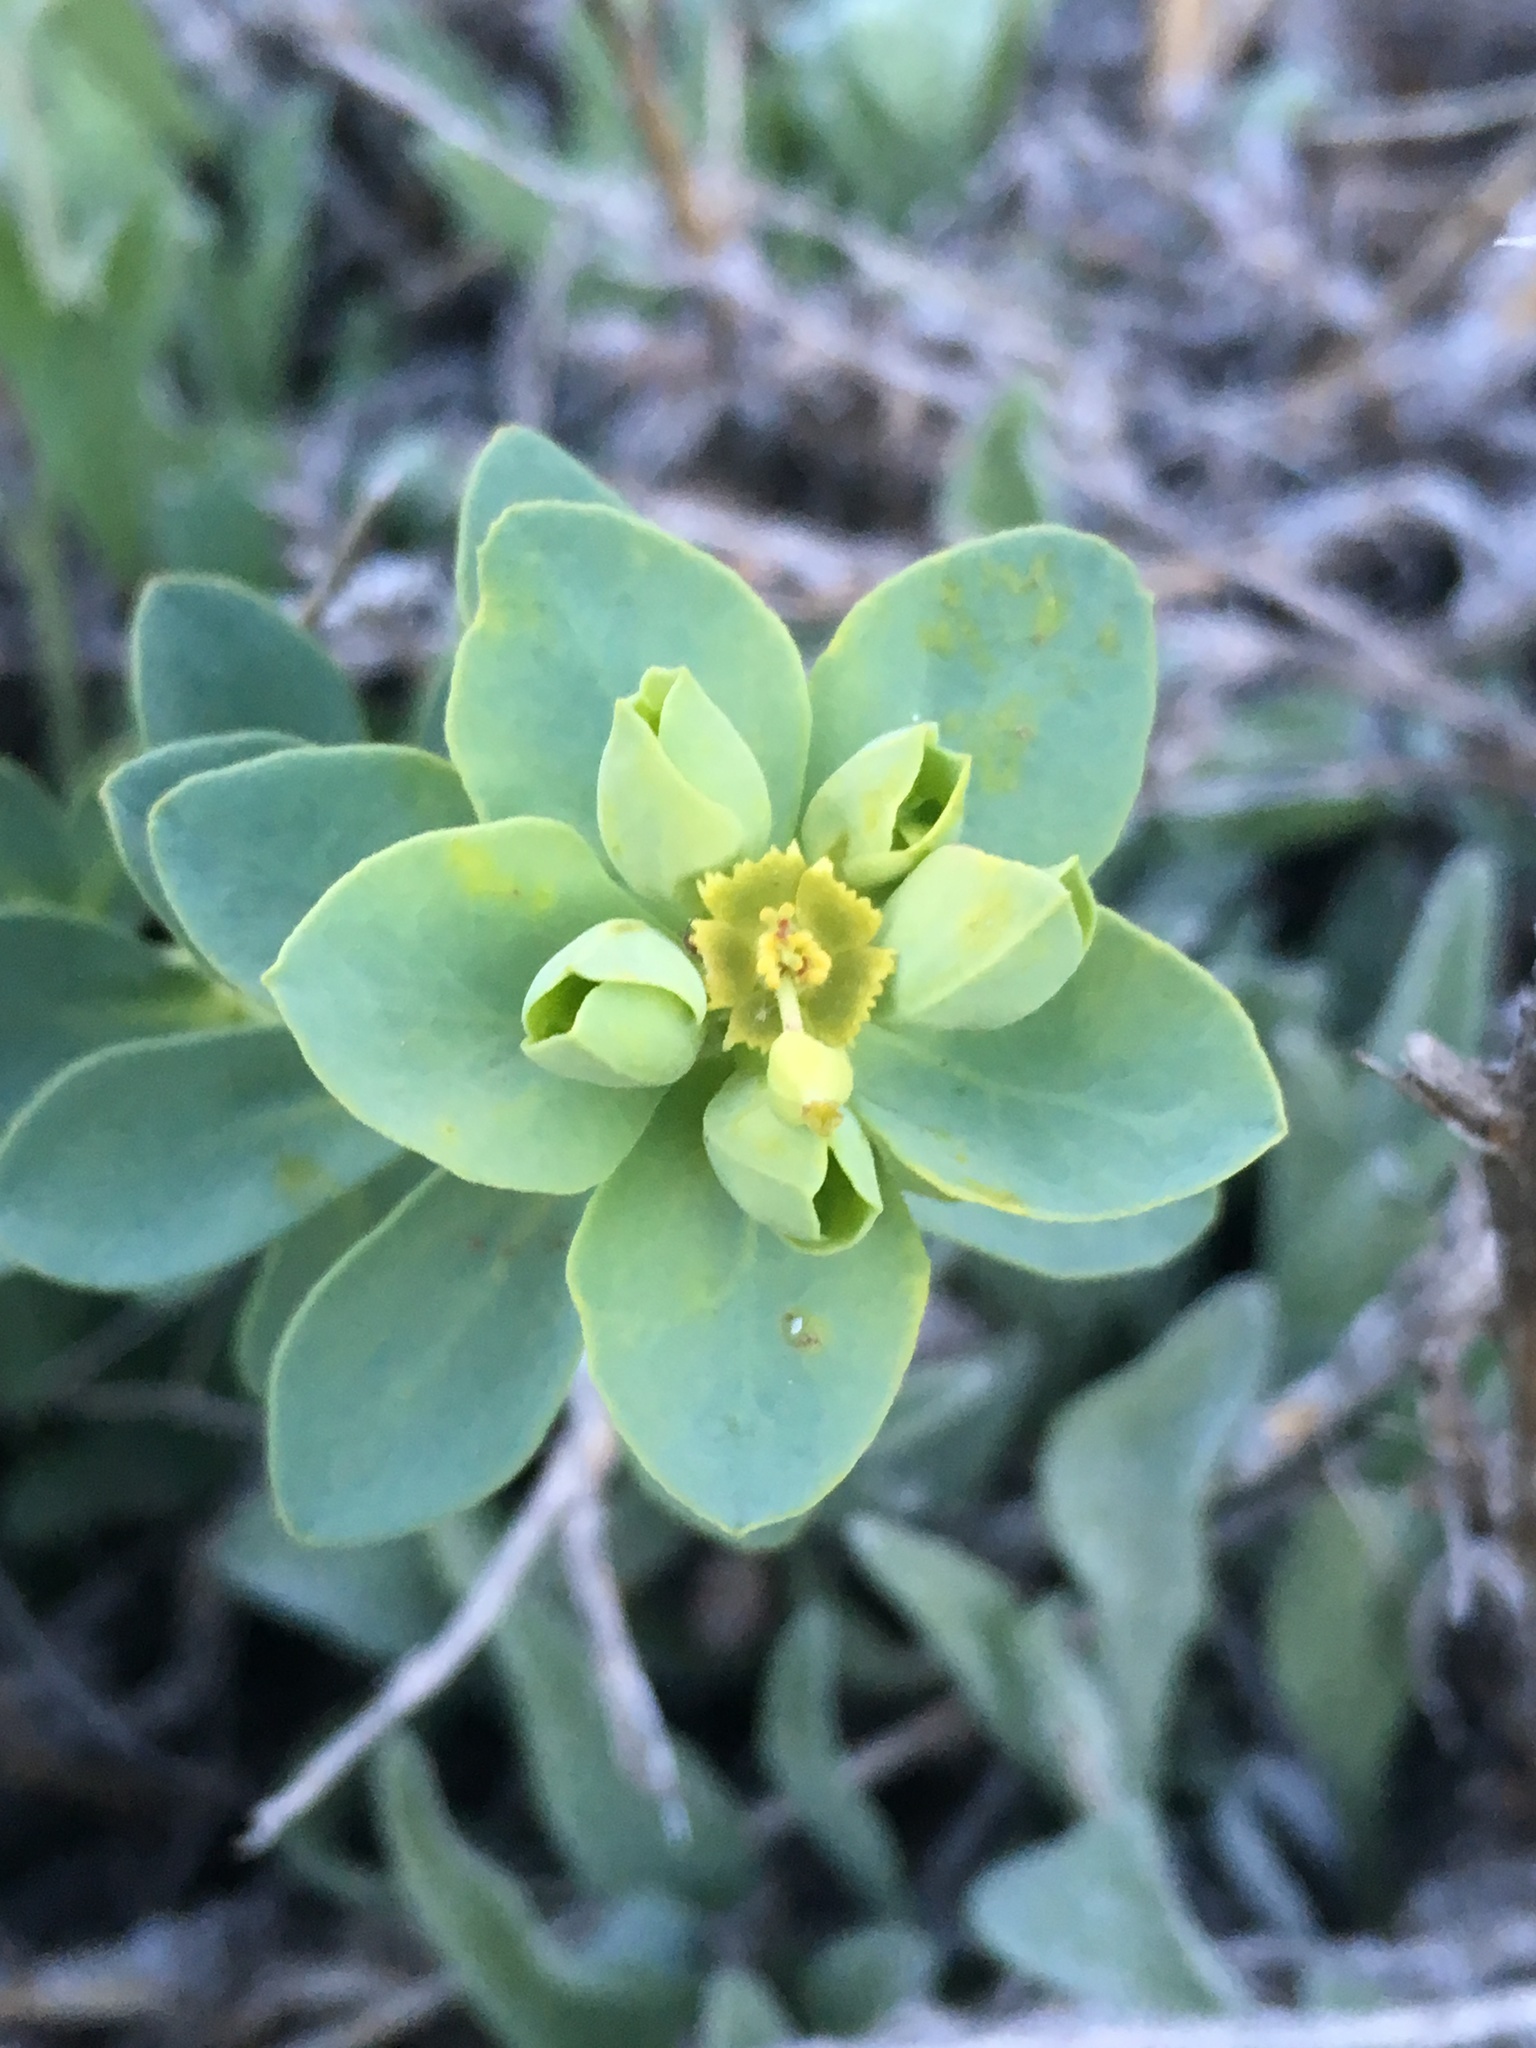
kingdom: Plantae
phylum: Tracheophyta
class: Magnoliopsida
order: Malpighiales
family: Euphorbiaceae
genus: Euphorbia
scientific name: Euphorbia lurida
